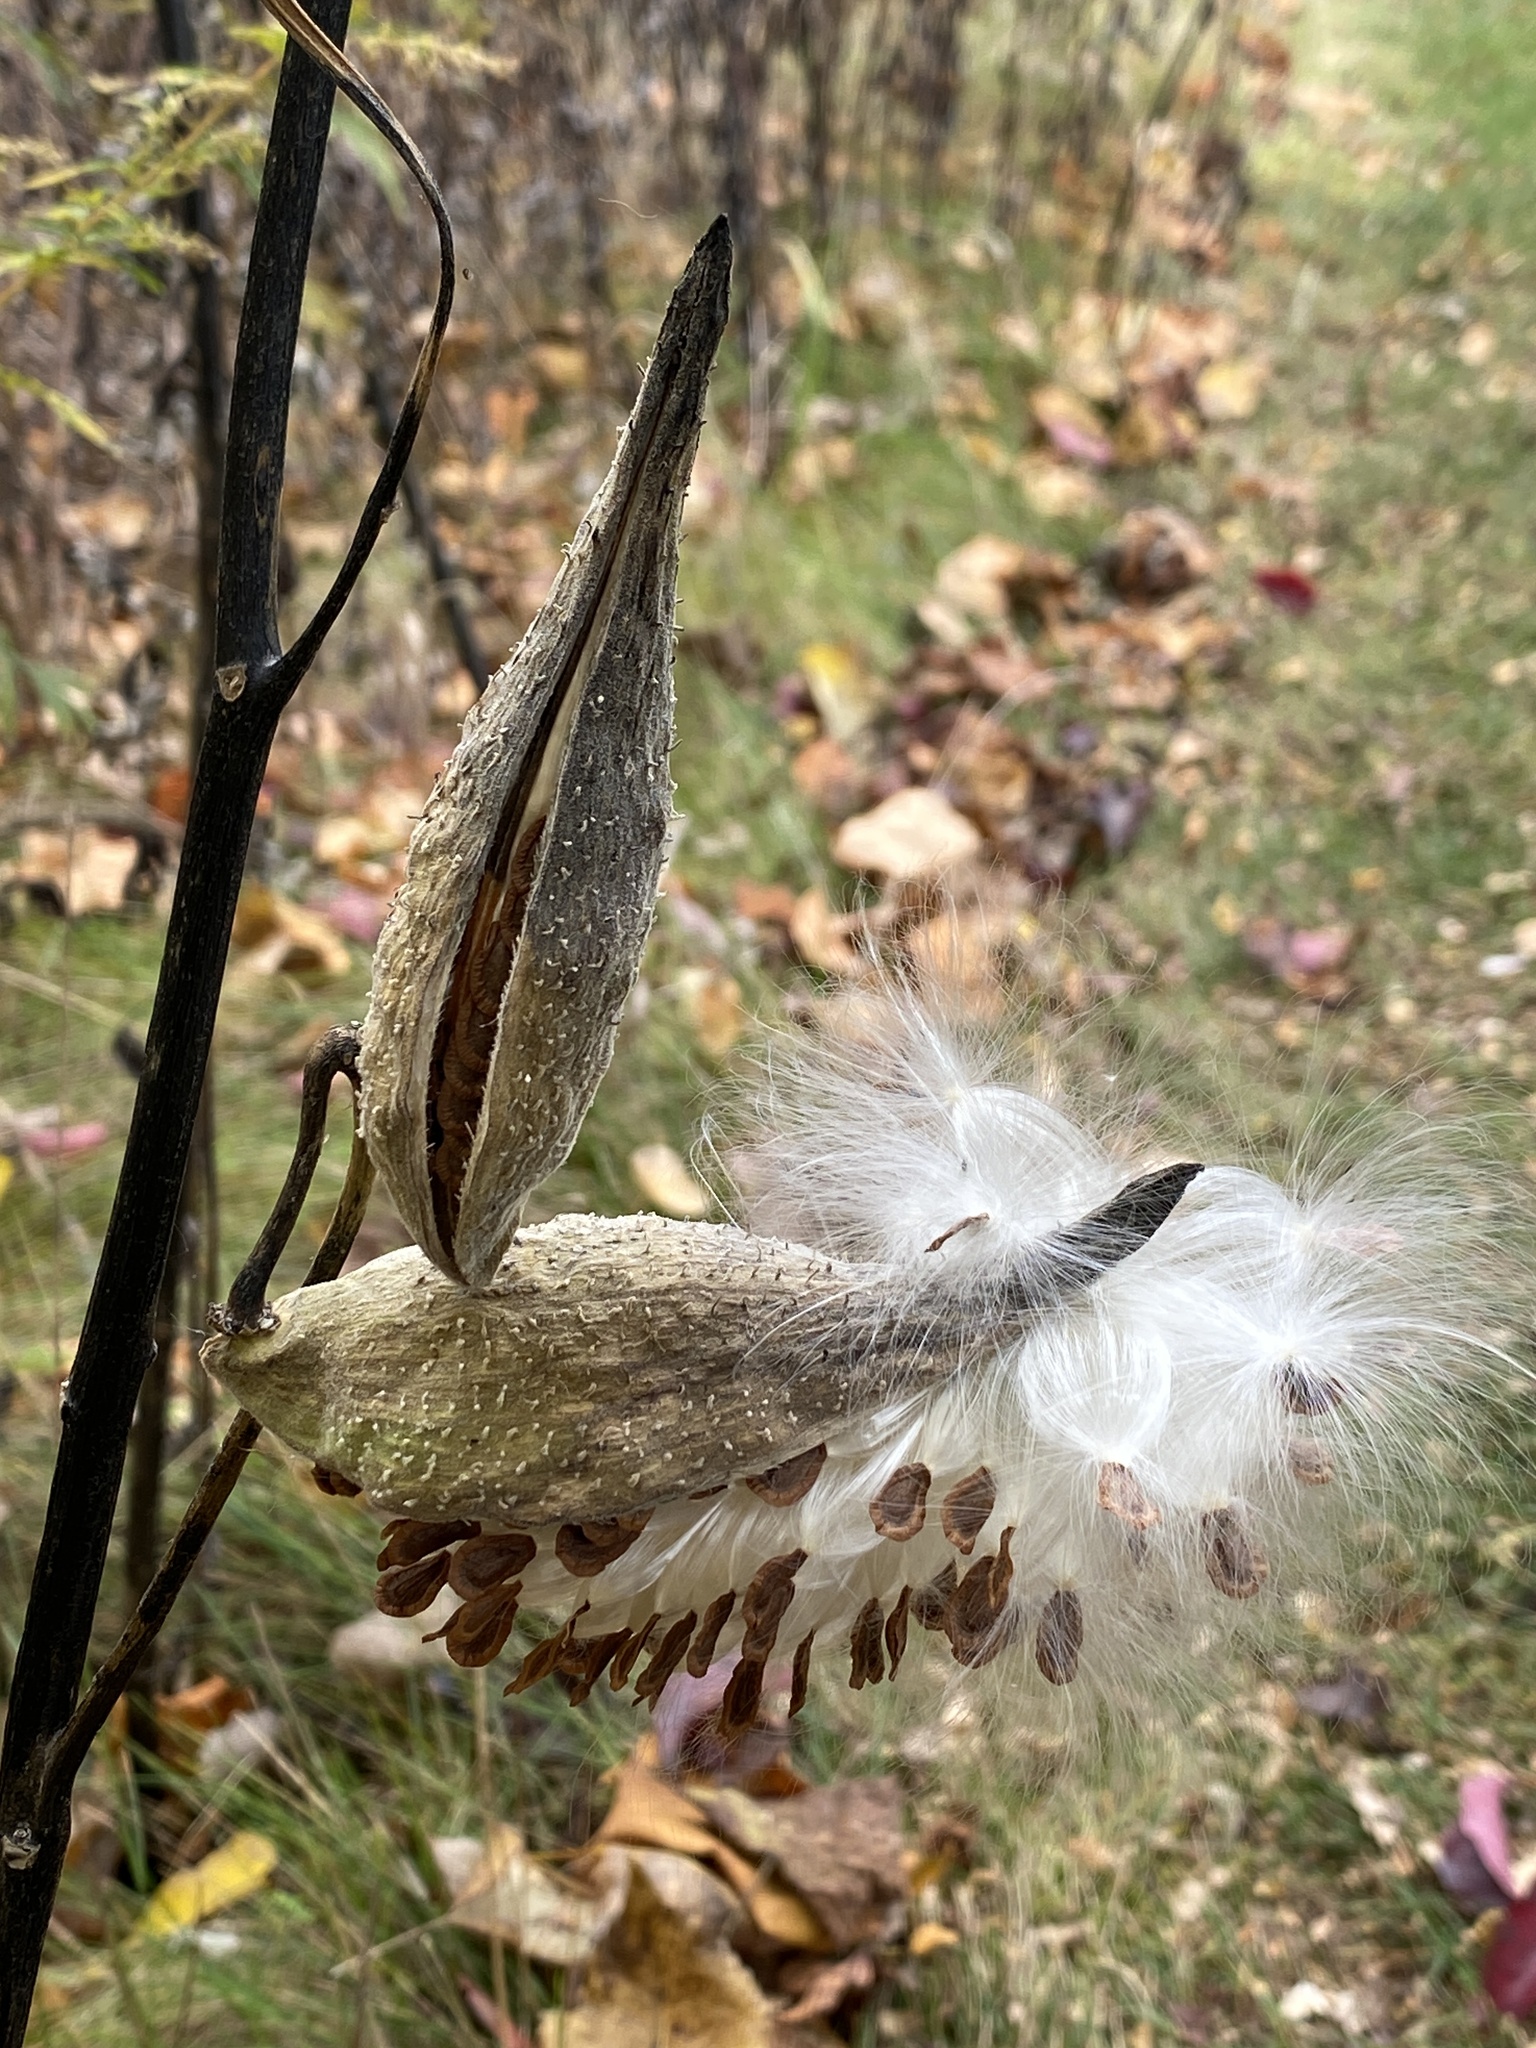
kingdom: Plantae
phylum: Tracheophyta
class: Magnoliopsida
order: Gentianales
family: Apocynaceae
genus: Asclepias
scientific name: Asclepias syriaca
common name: Common milkweed
